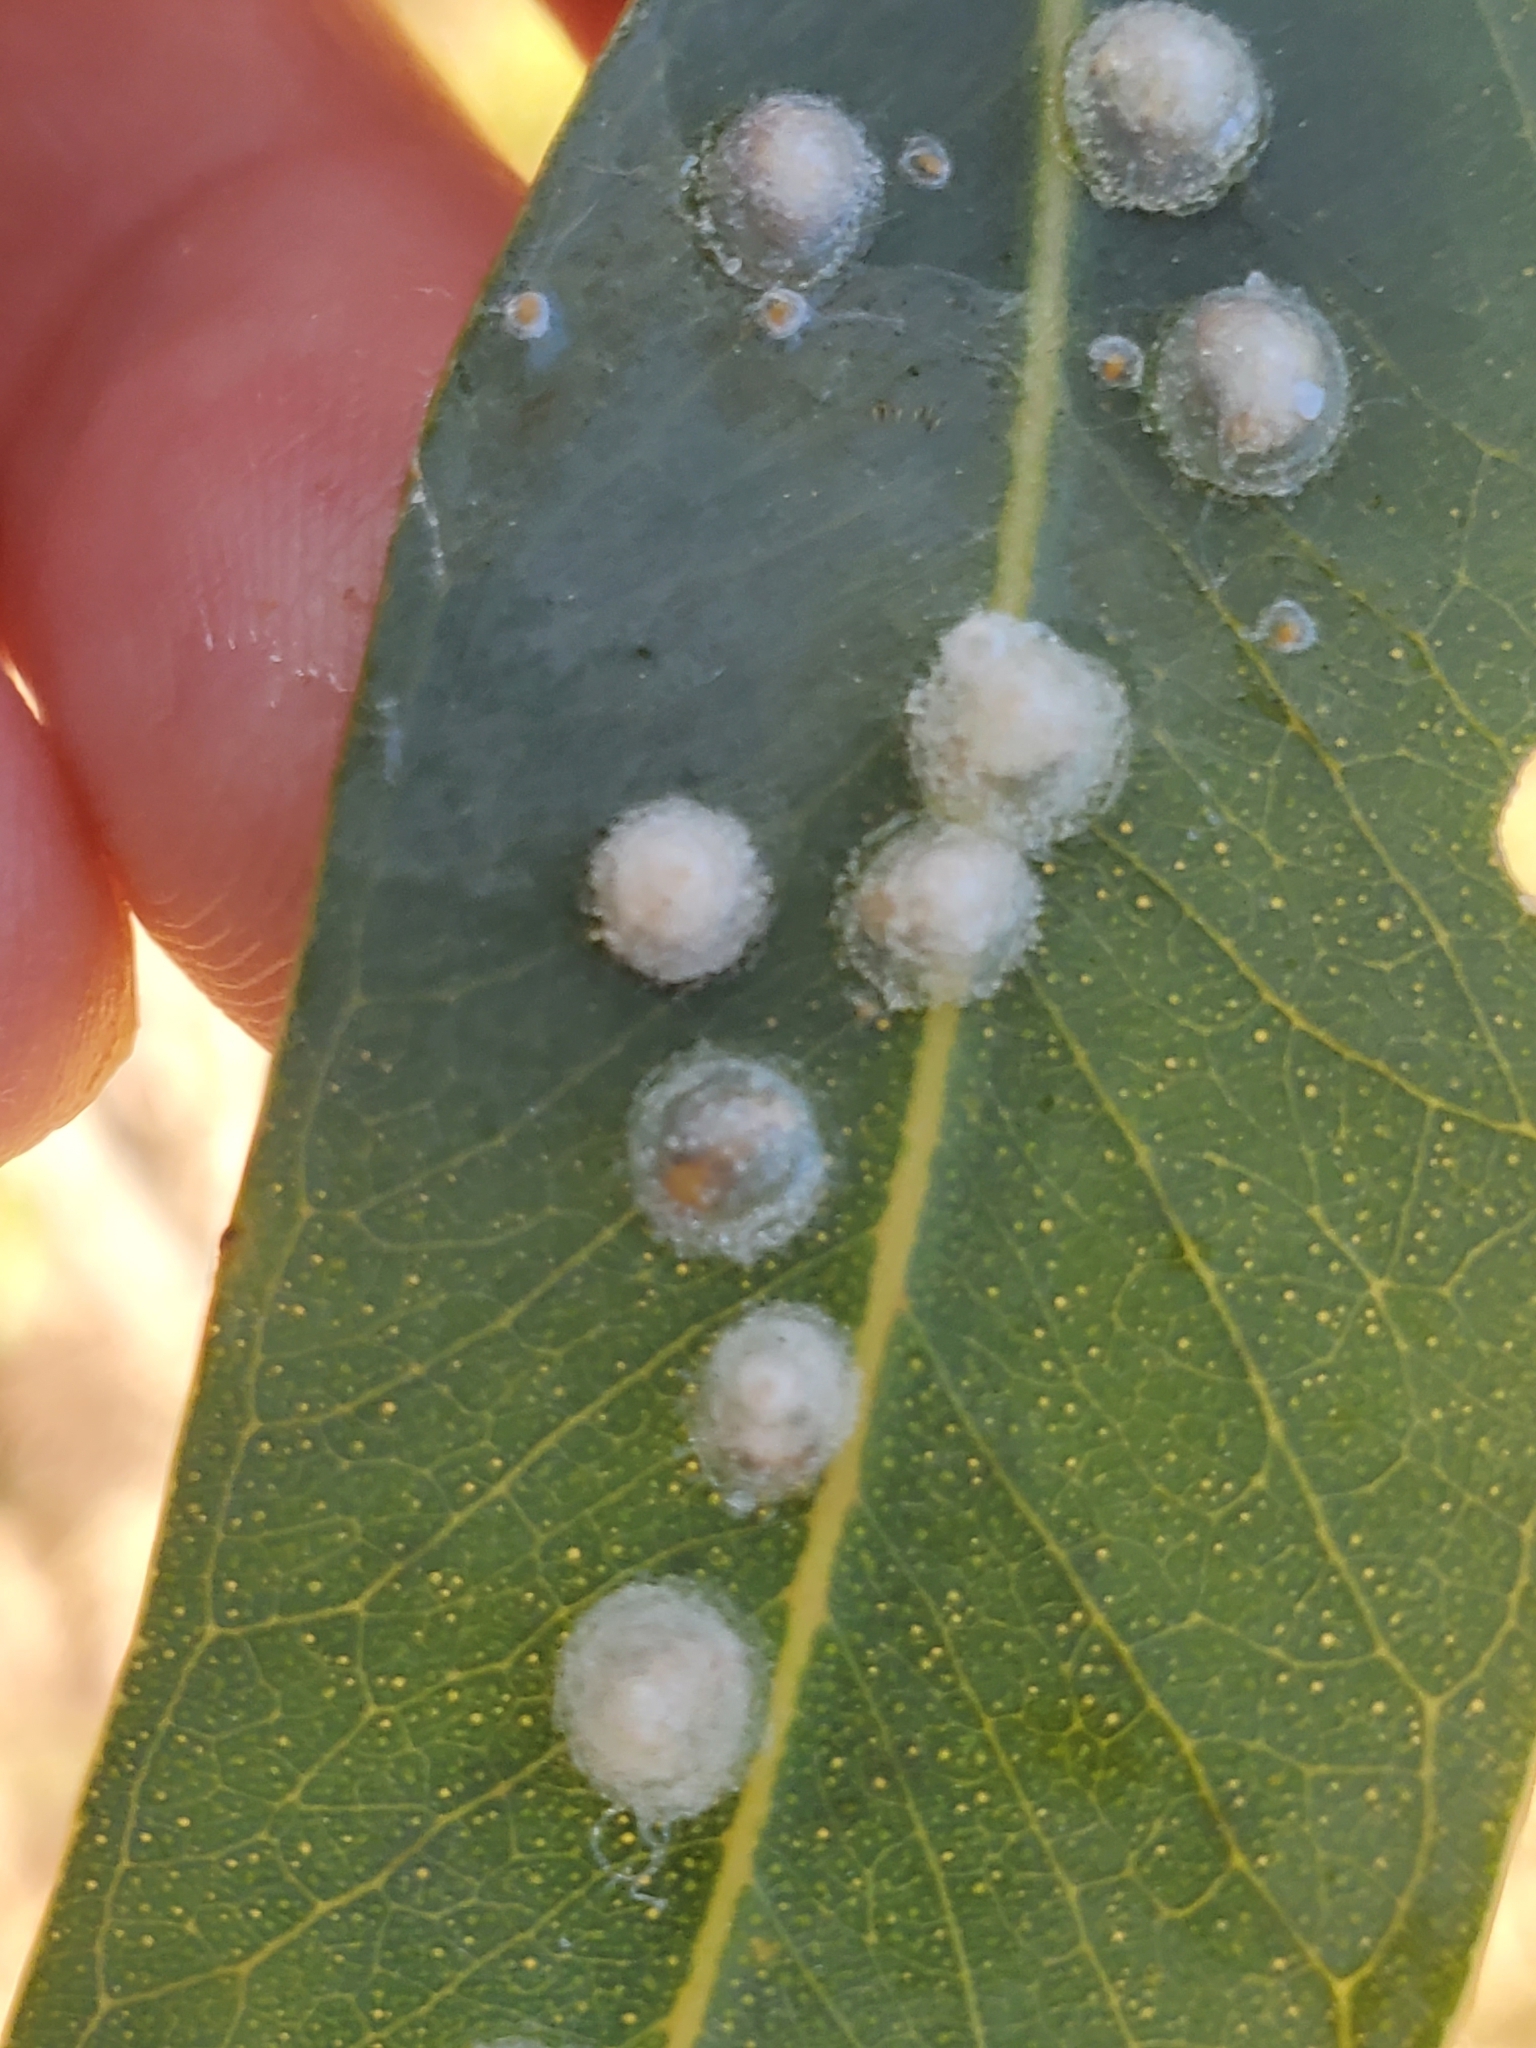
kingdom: Animalia
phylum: Arthropoda
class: Insecta
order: Hemiptera
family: Aphalaridae
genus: Glycaspis
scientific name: Glycaspis brimblecombei
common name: Red gum lerp psyllid
